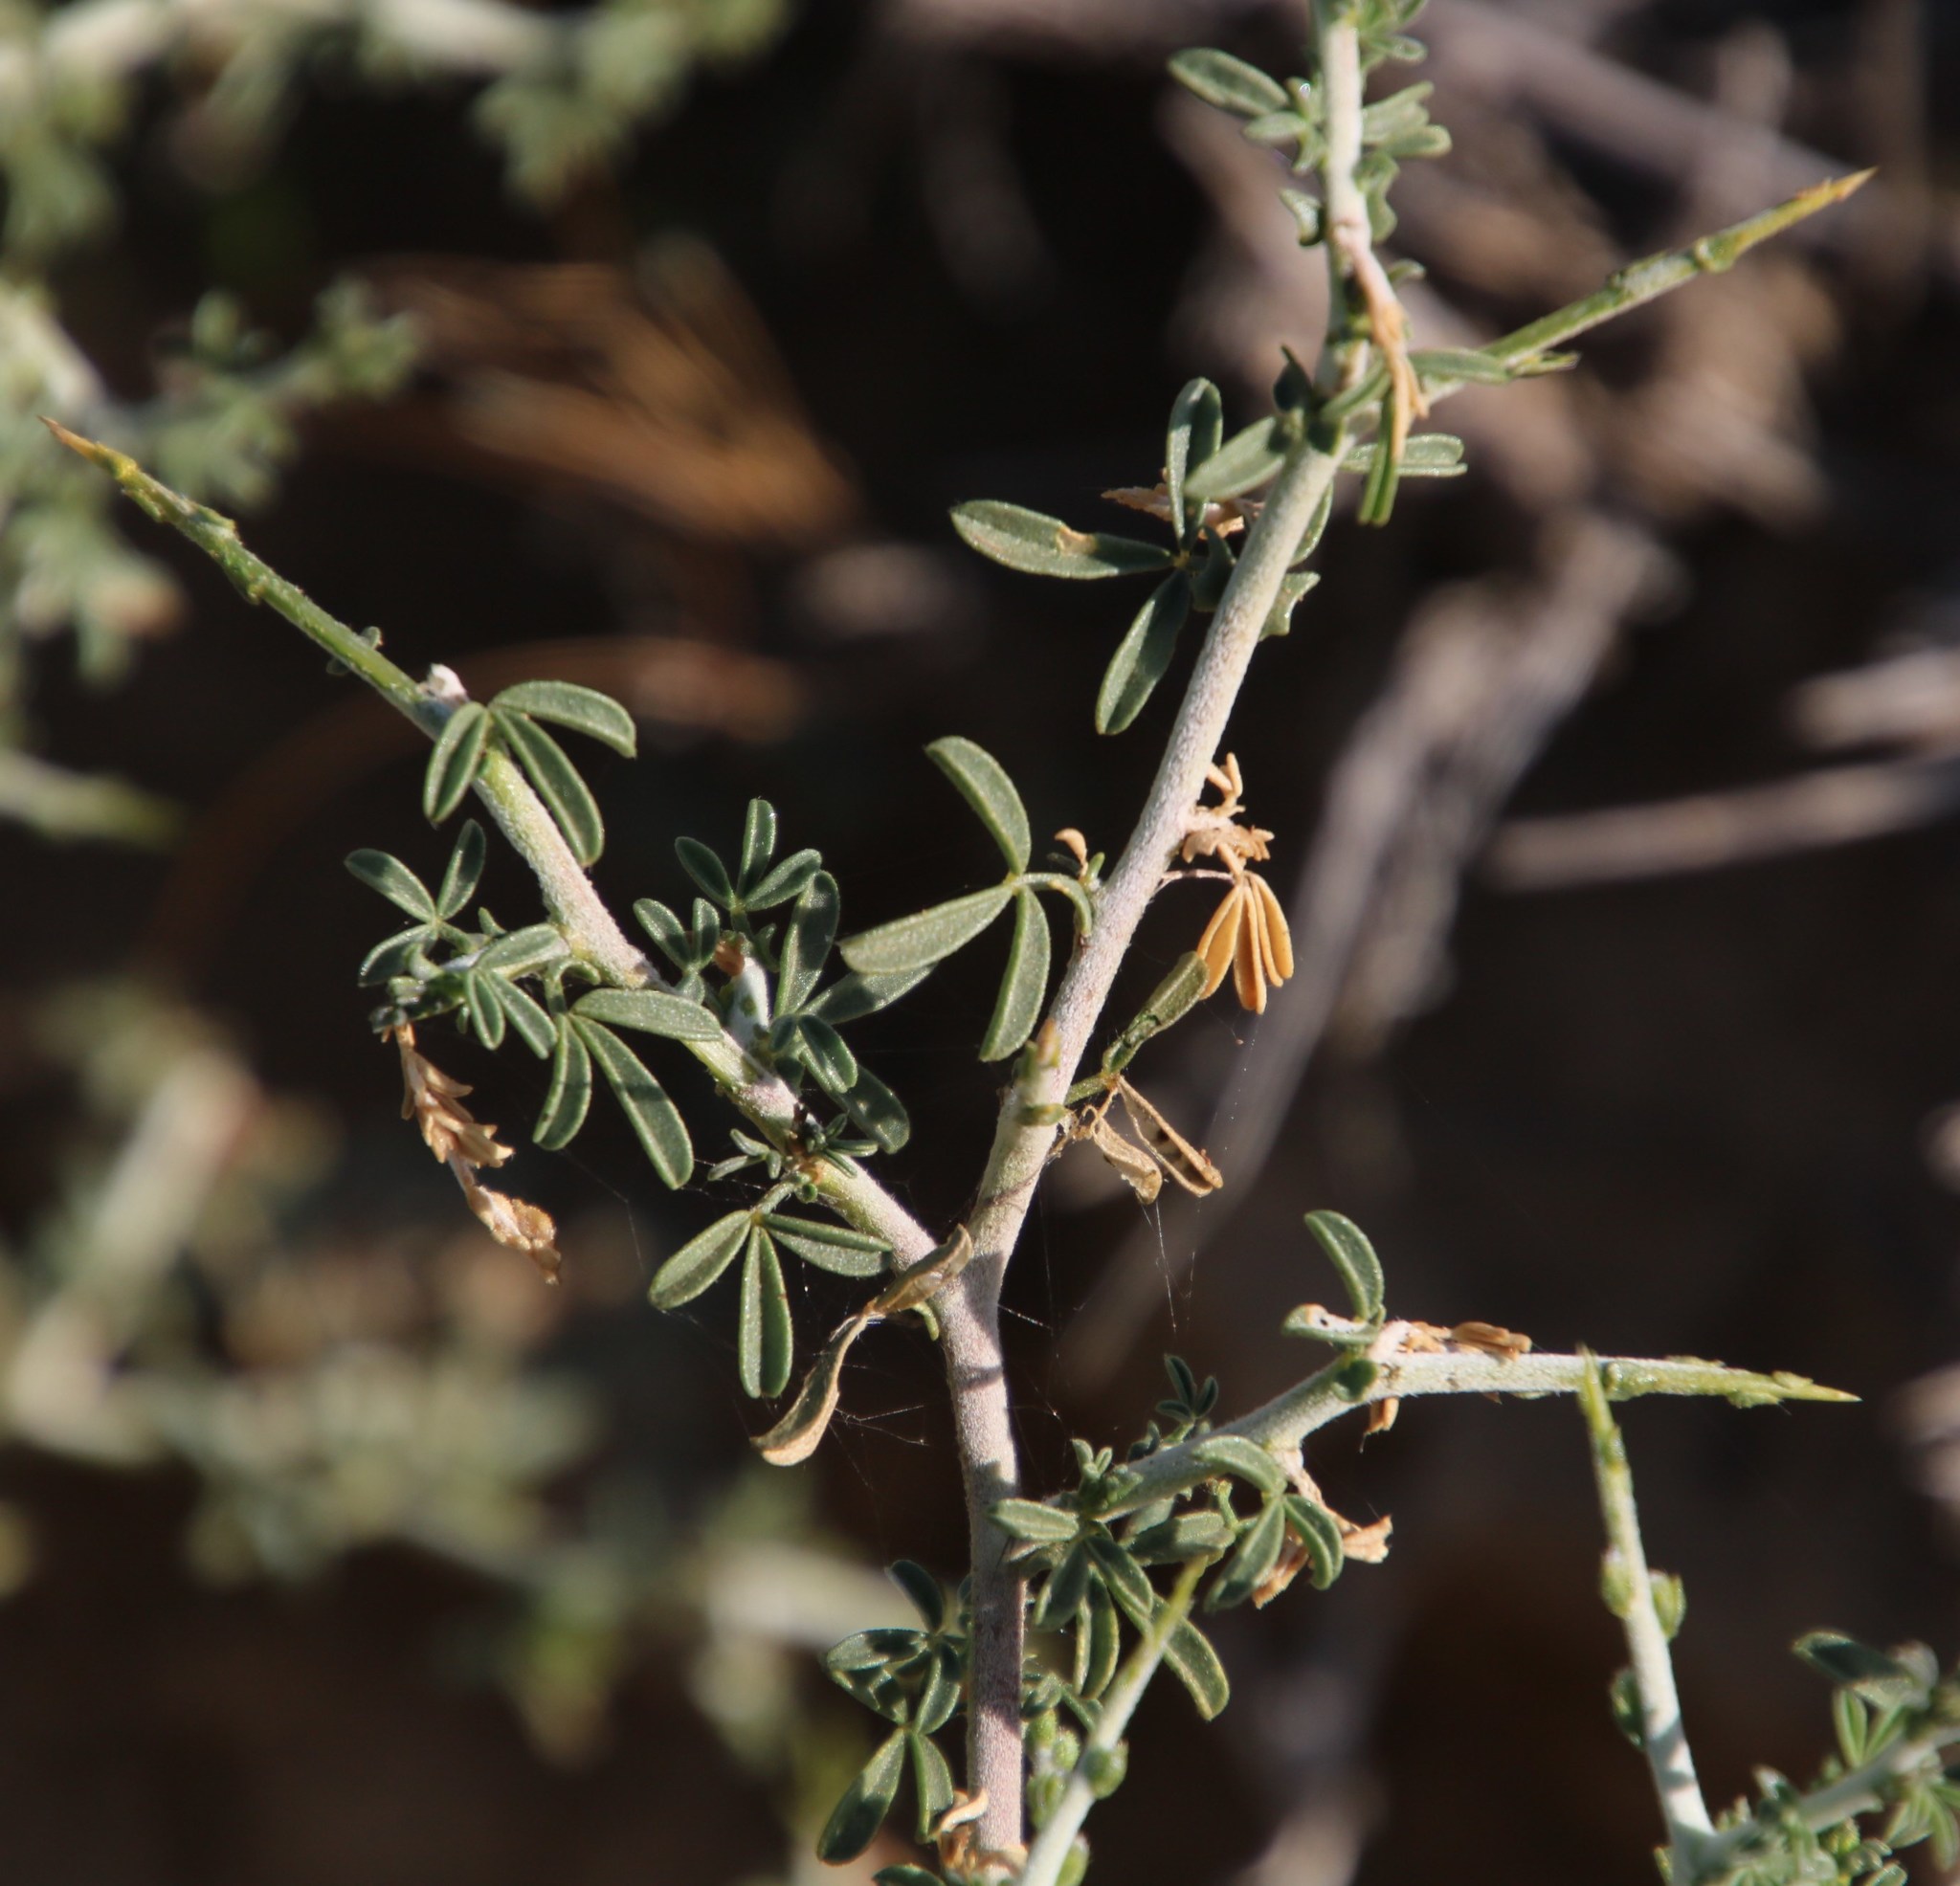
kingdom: Plantae
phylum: Tracheophyta
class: Magnoliopsida
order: Fabales
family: Fabaceae
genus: Melolobium
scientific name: Melolobium candicans
